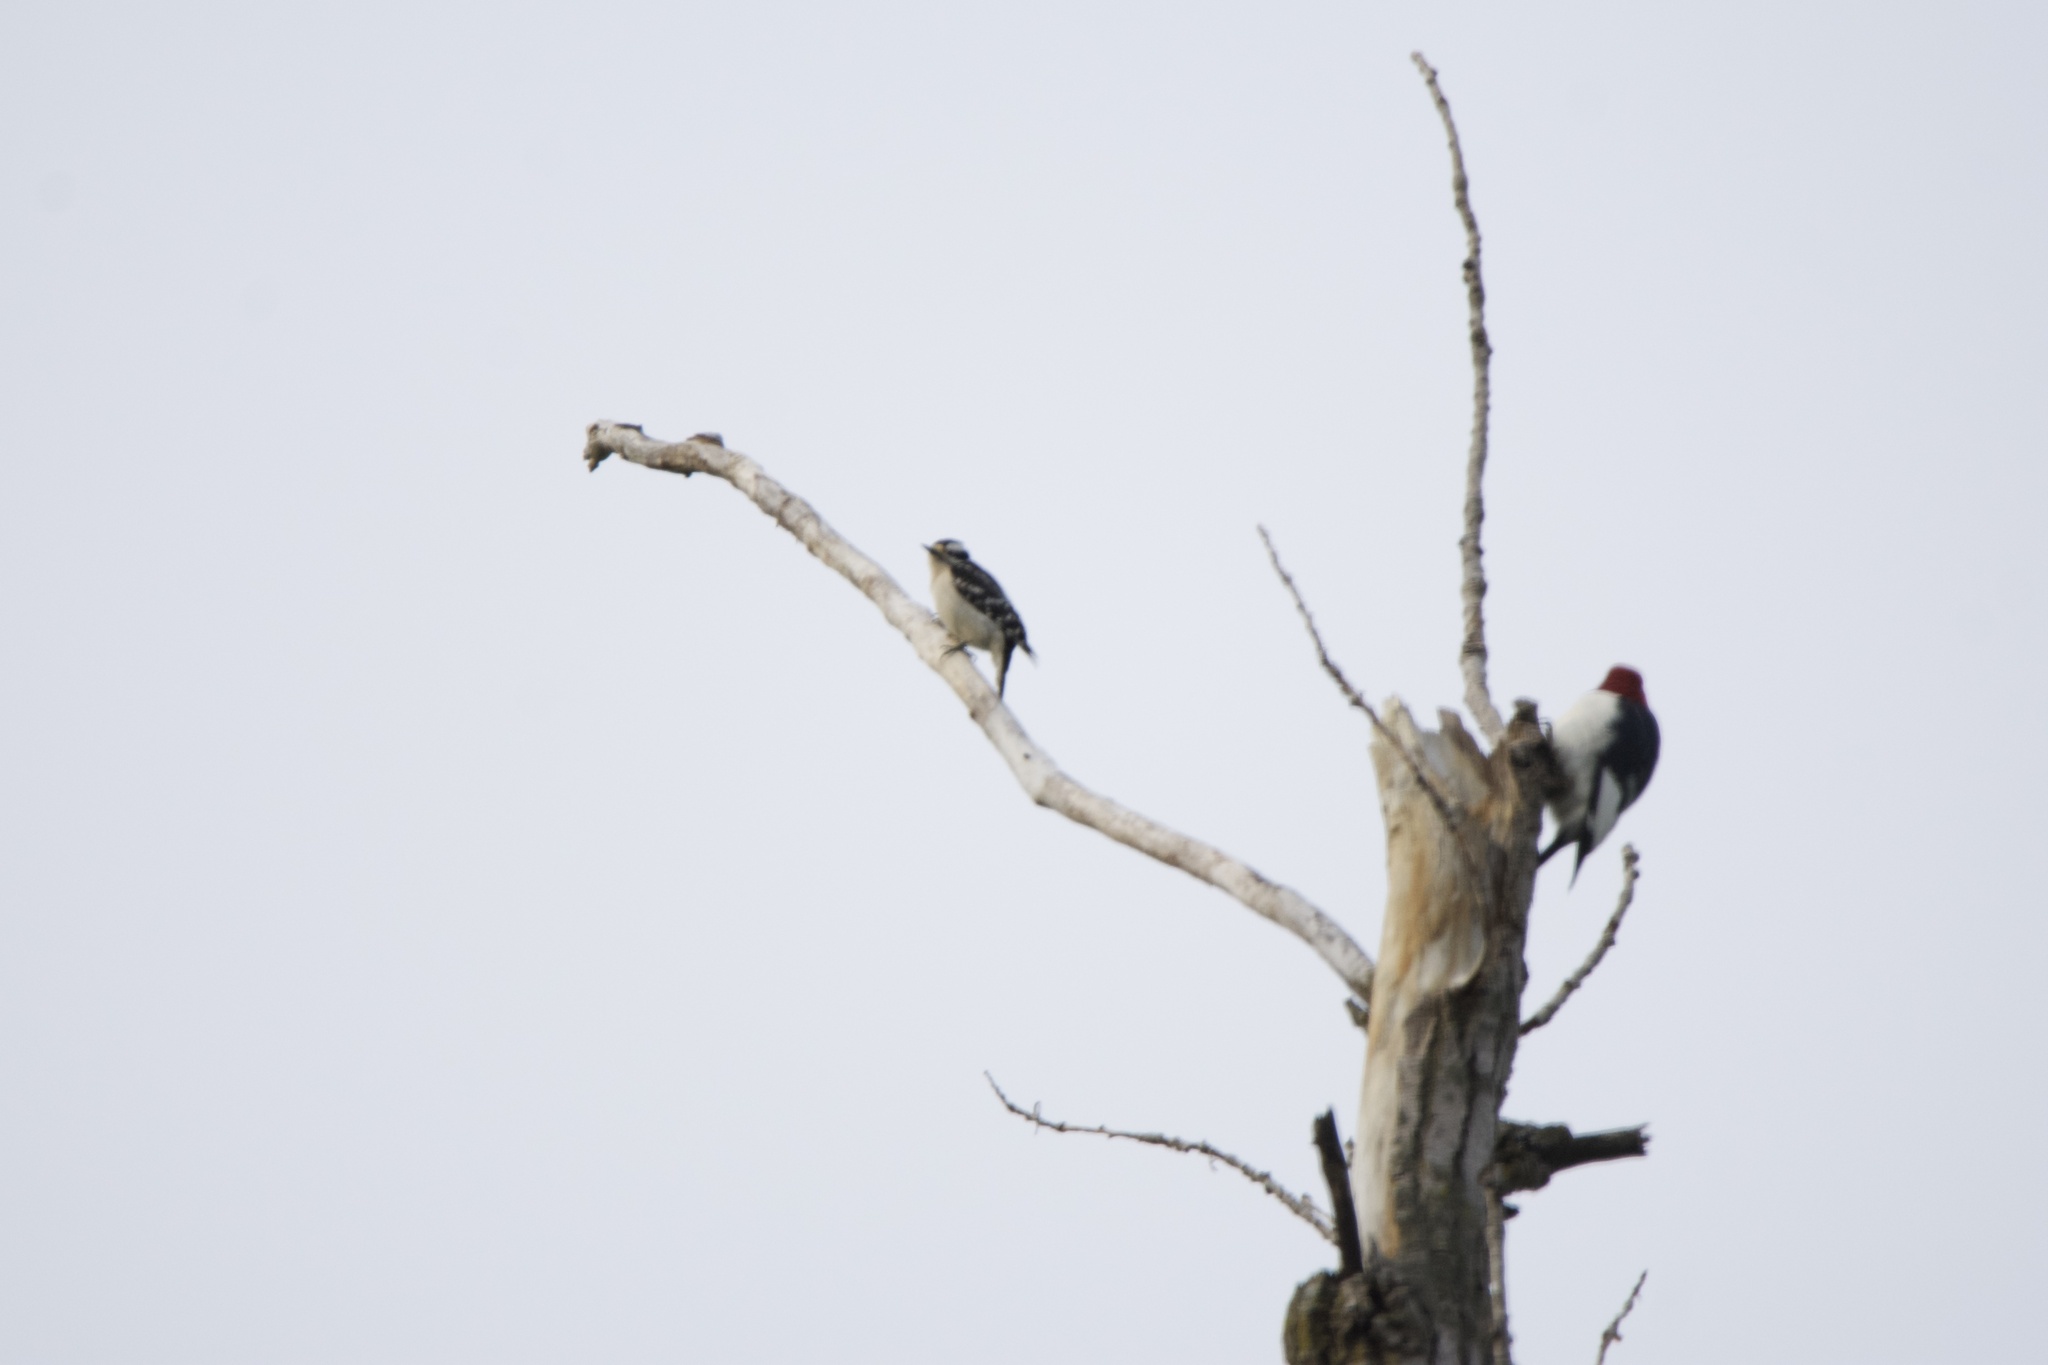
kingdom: Animalia
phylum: Chordata
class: Aves
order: Piciformes
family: Picidae
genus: Dryobates
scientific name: Dryobates pubescens
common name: Downy woodpecker
